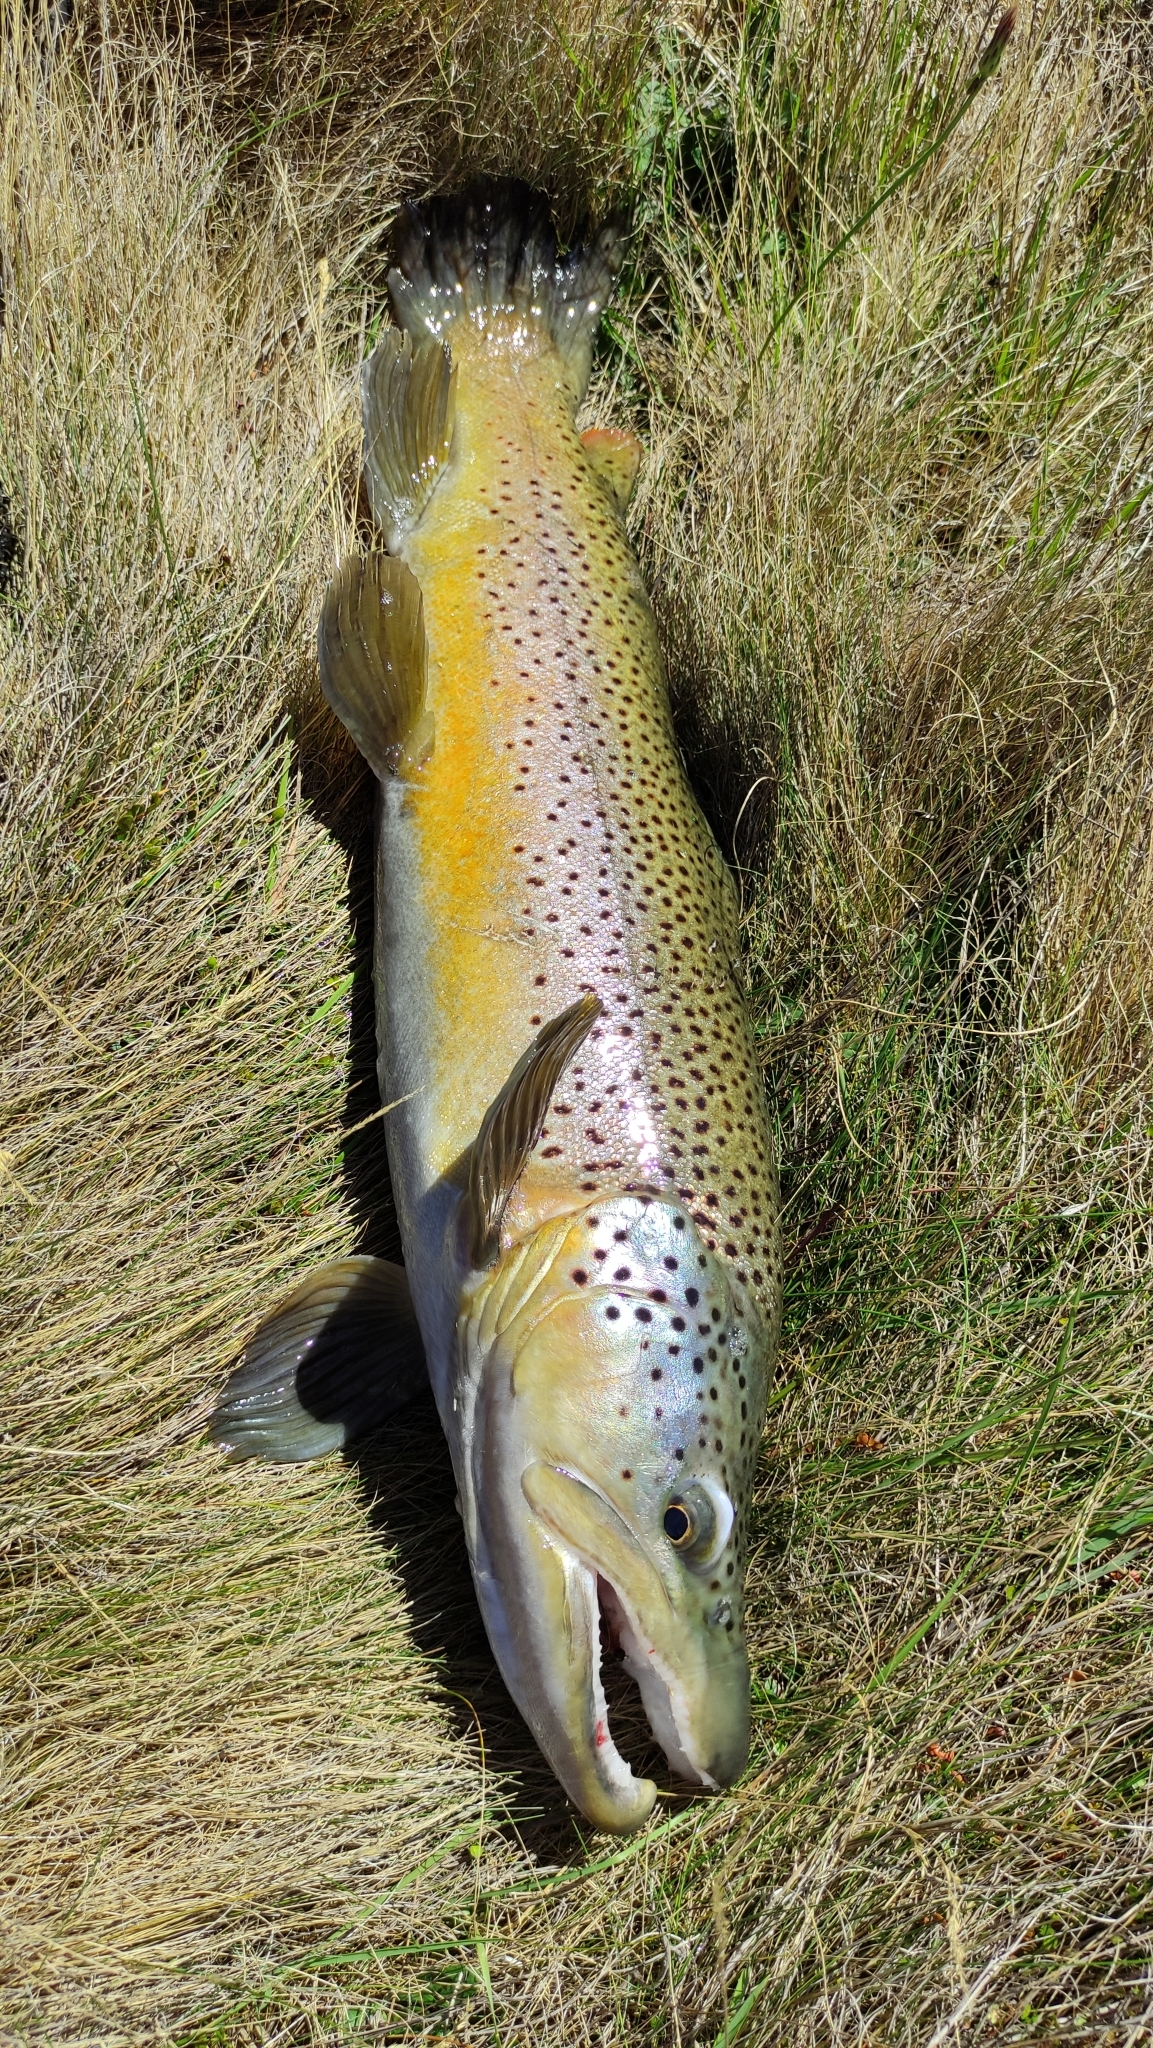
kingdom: Animalia
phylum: Chordata
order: Salmoniformes
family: Salmonidae
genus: Salmo
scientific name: Salmo trutta
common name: Brown trout
